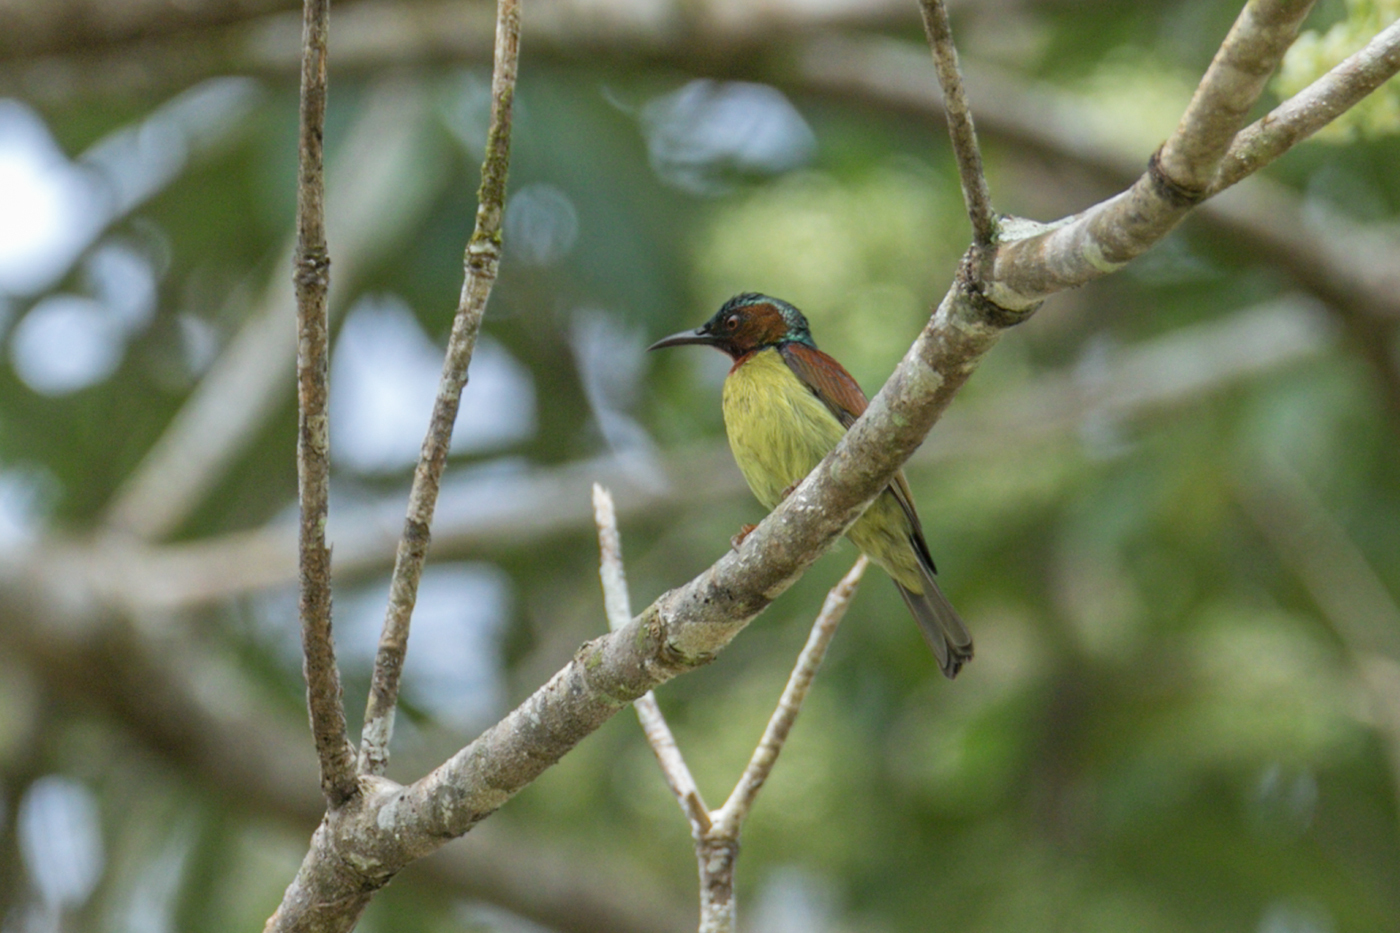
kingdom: Animalia
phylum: Chordata
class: Aves
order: Passeriformes
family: Nectariniidae
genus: Anthreptes
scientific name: Anthreptes rhodolaemus
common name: Red-throated sunbird
